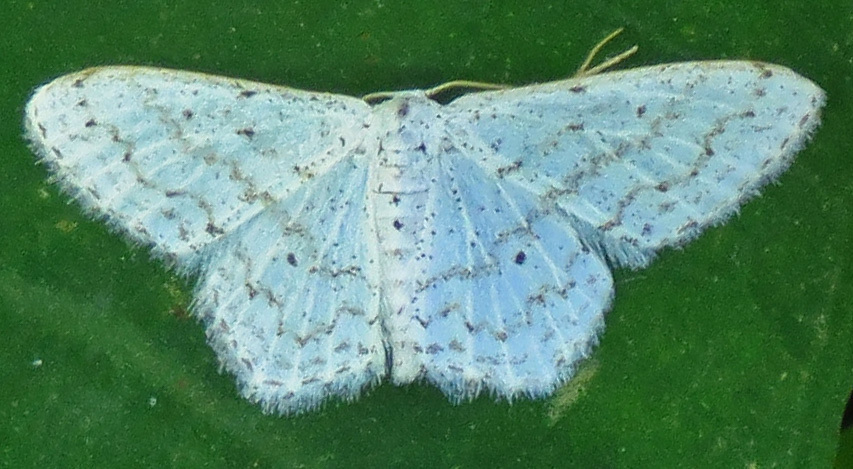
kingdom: Animalia
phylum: Arthropoda
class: Insecta
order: Lepidoptera
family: Geometridae
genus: Idaea
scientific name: Idaea tacturata
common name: Dot-lined wave
